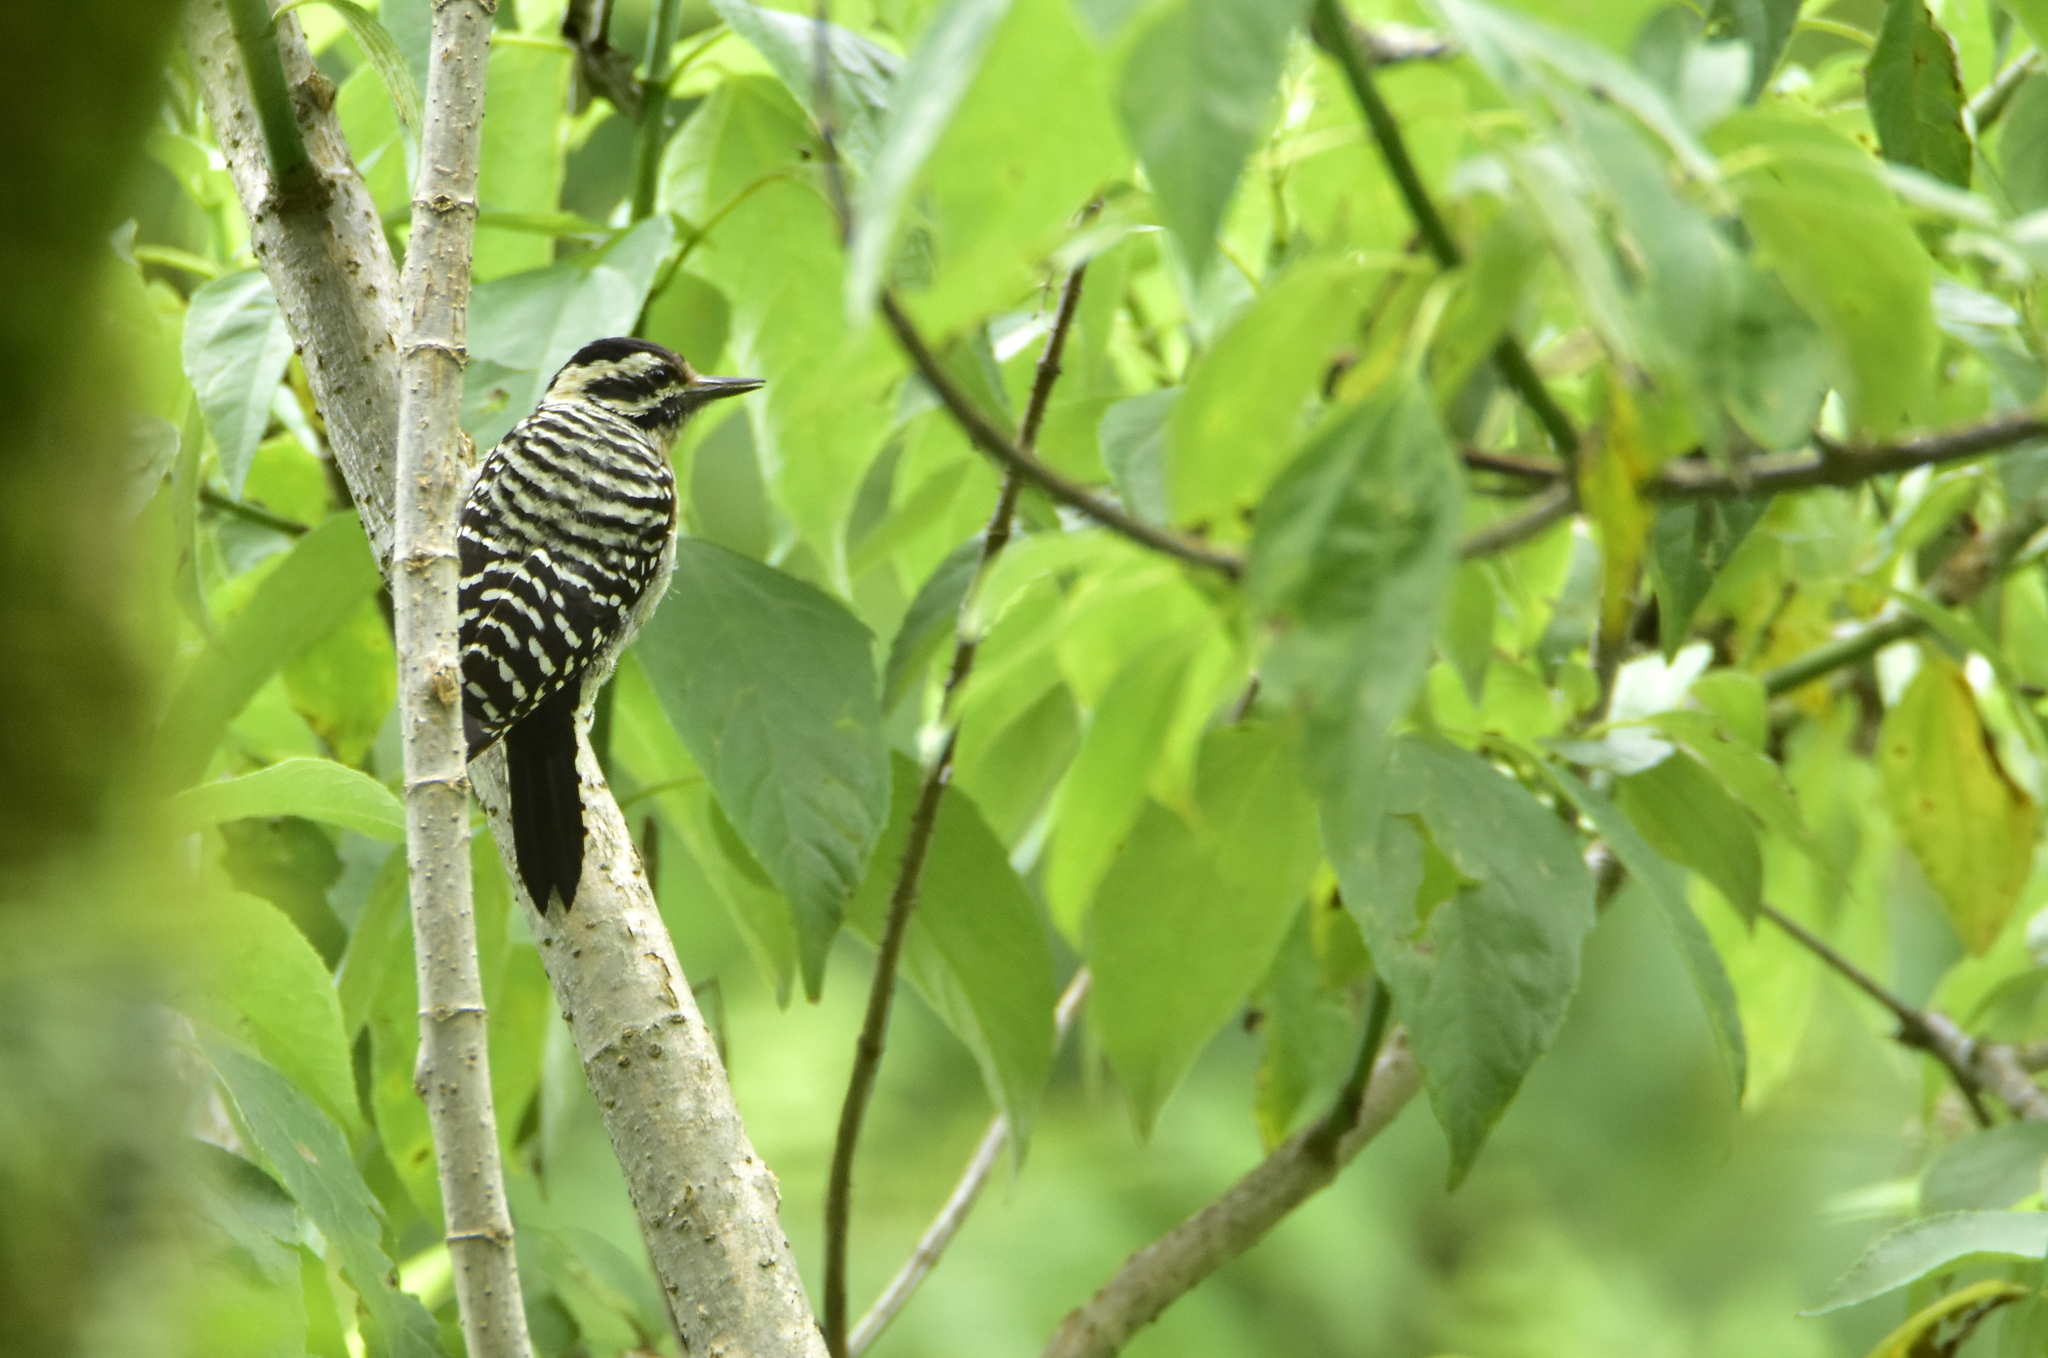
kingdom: Animalia
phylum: Chordata
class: Aves
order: Piciformes
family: Picidae
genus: Dryobates
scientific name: Dryobates scalaris
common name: Ladder-backed woodpecker
